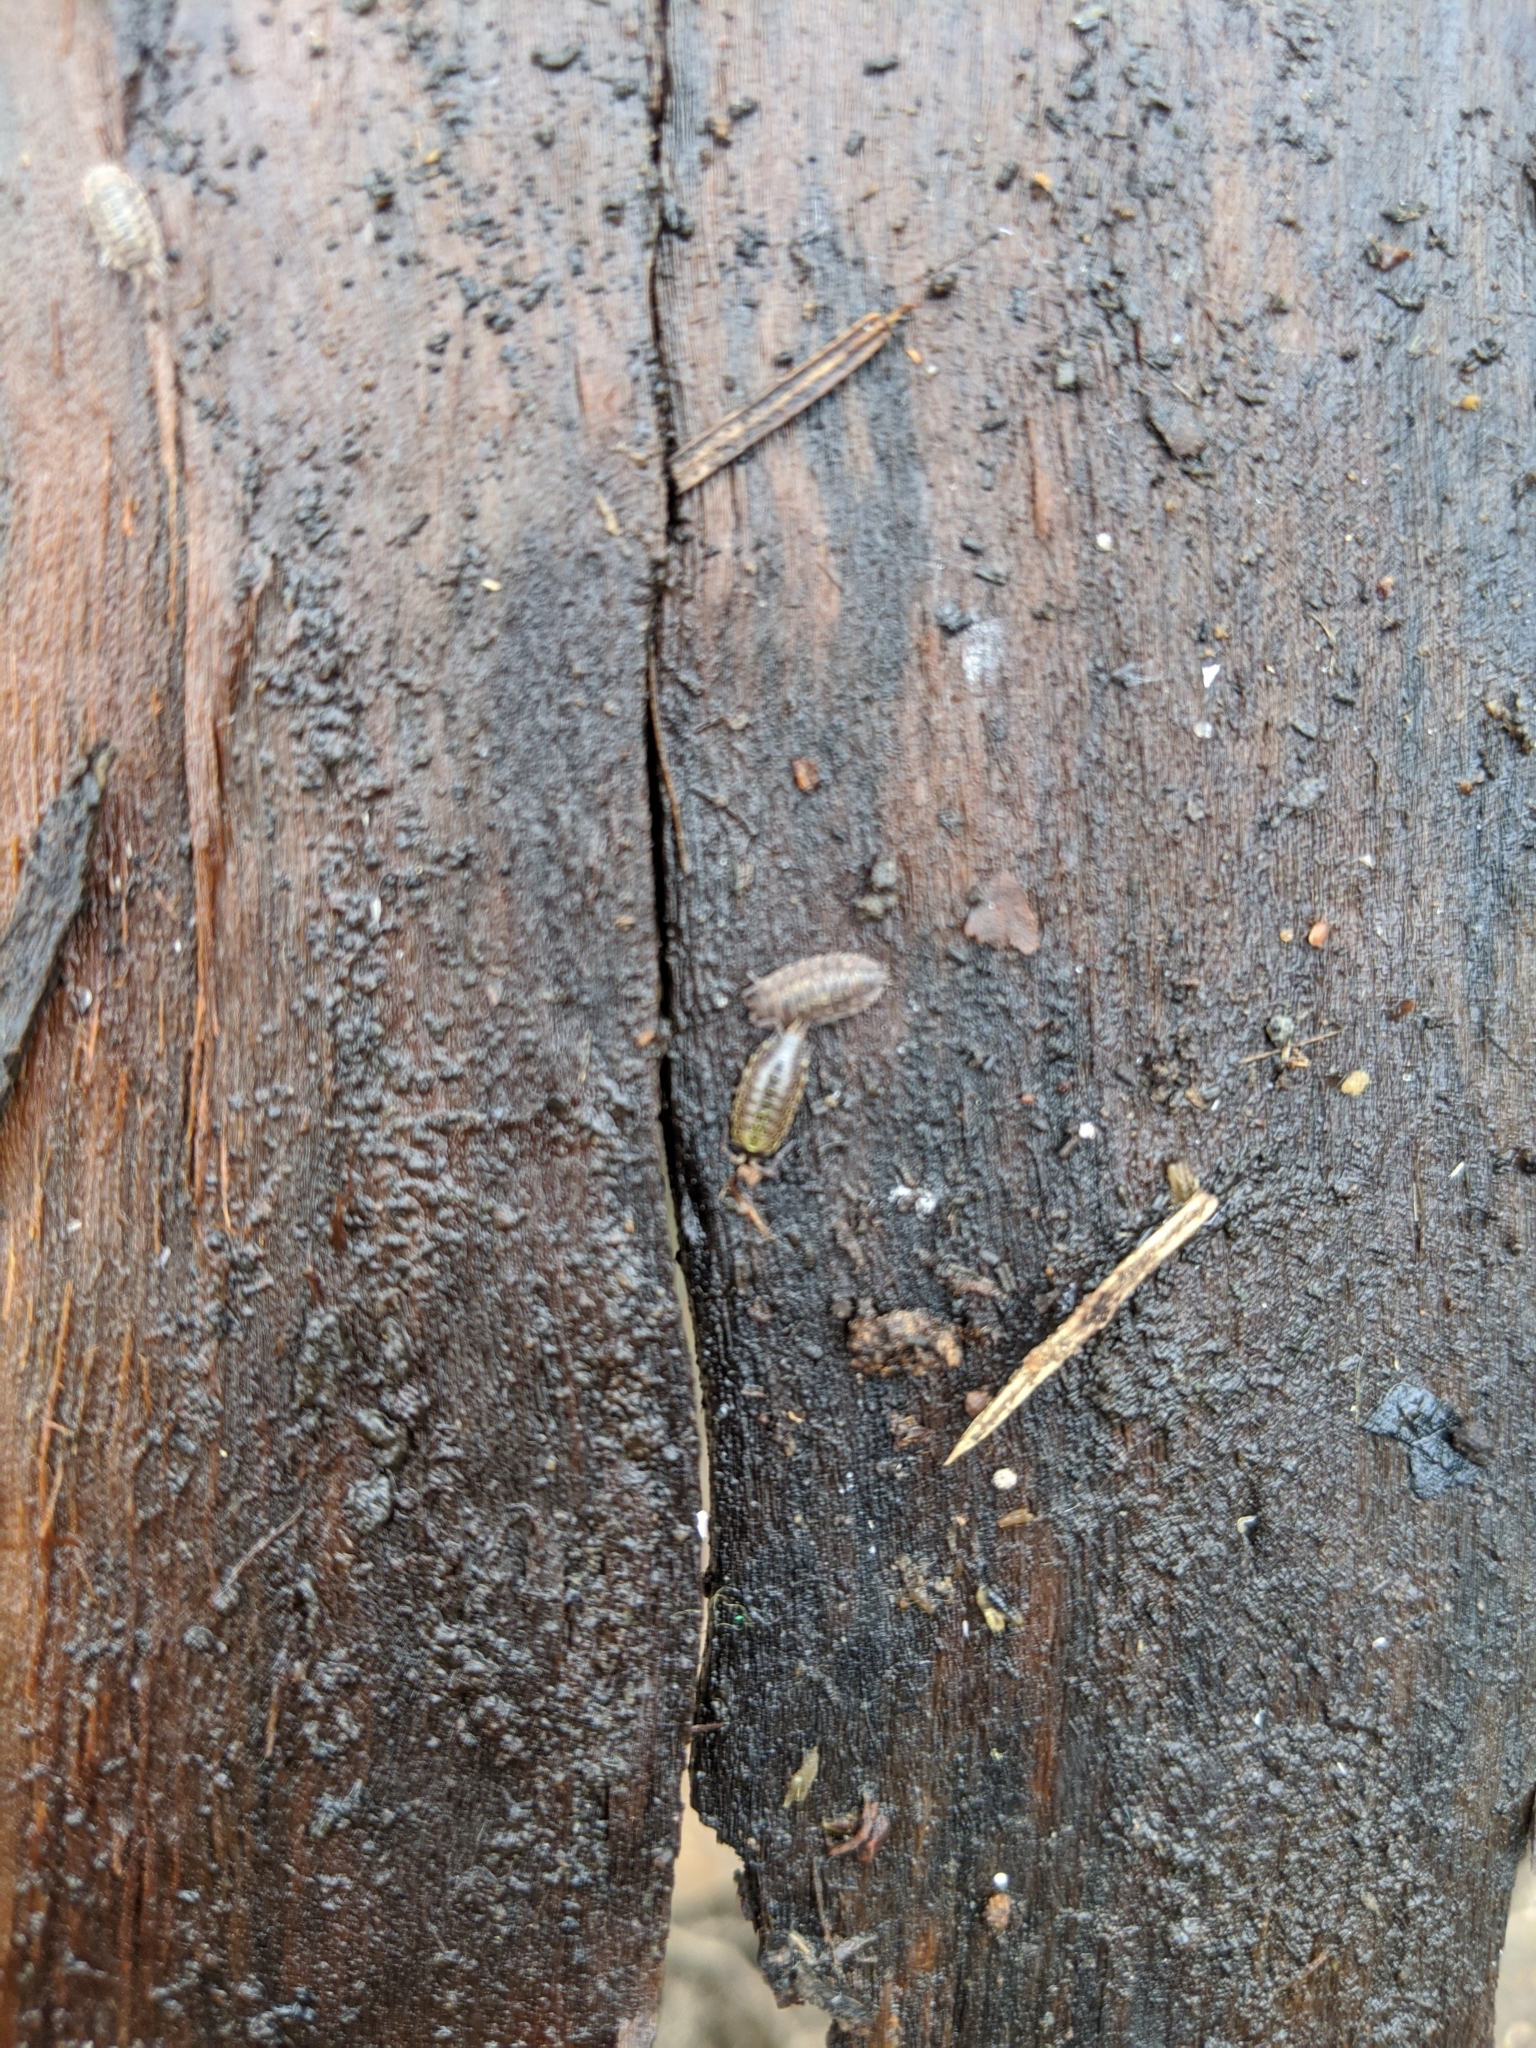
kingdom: Animalia
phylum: Arthropoda
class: Malacostraca
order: Isopoda
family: Philosciidae
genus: Philoscia
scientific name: Philoscia muscorum
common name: Common striped woodlouse
